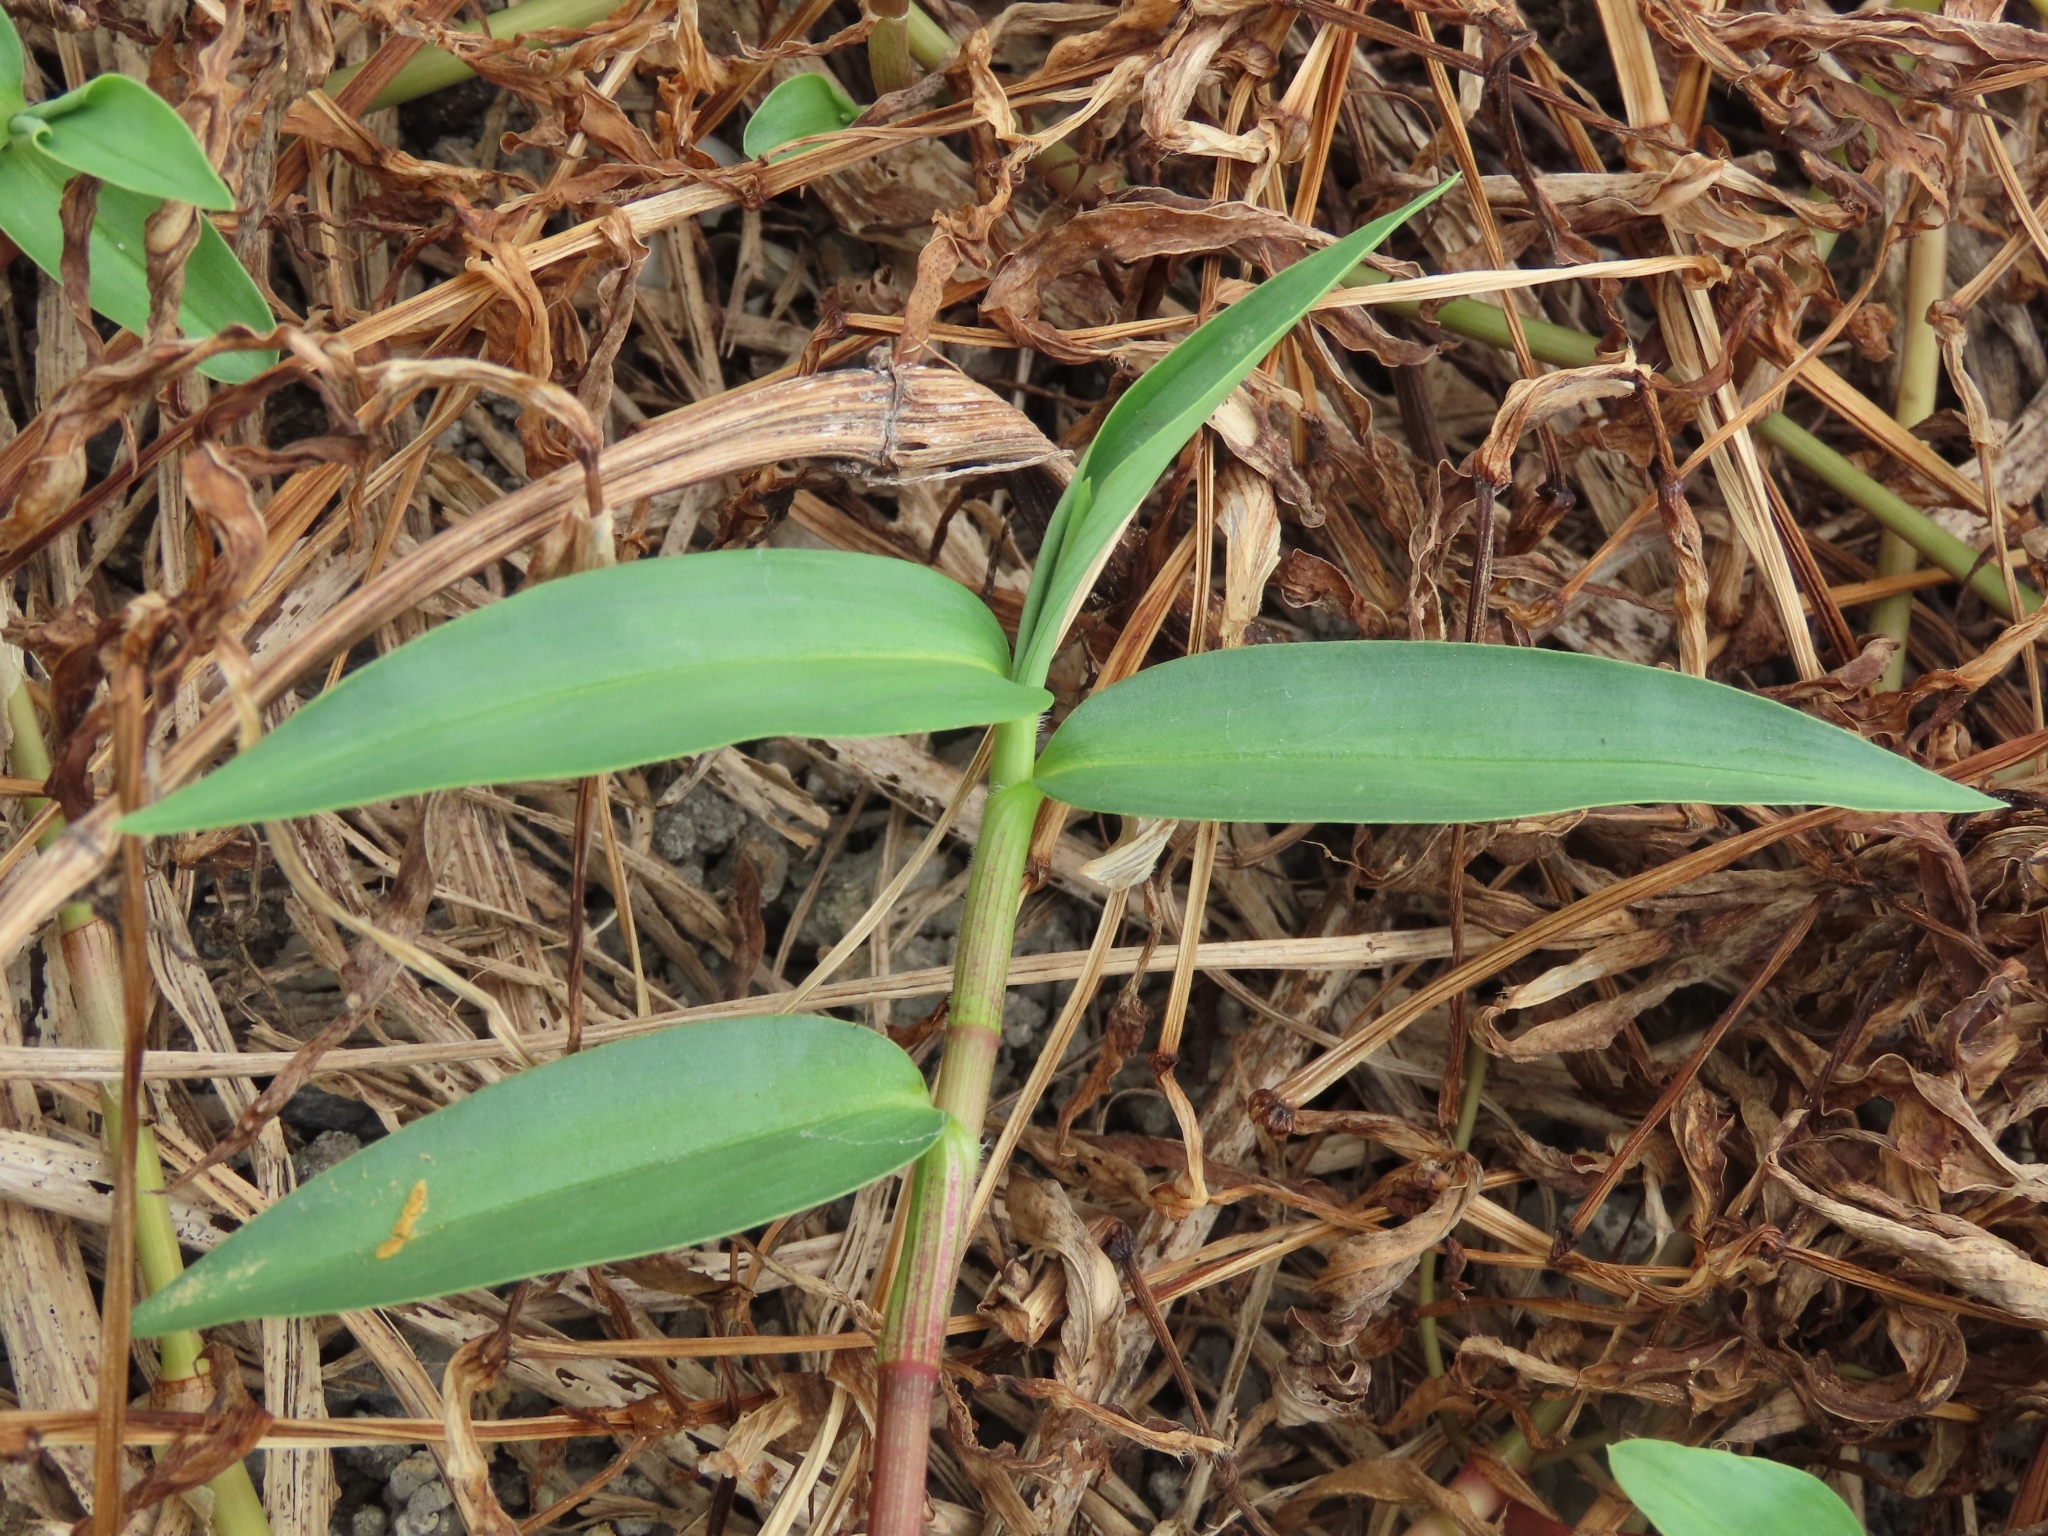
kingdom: Plantae
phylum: Tracheophyta
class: Liliopsida
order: Commelinales
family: Commelinaceae
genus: Commelina
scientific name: Commelina diffusa
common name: Climbing dayflower
